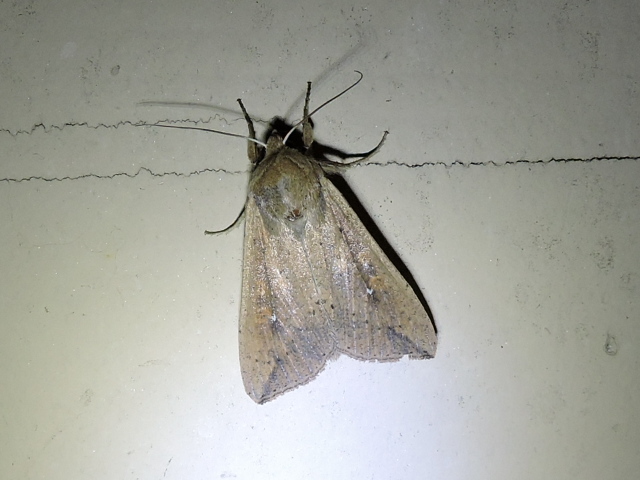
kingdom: Animalia
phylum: Arthropoda
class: Insecta
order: Lepidoptera
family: Noctuidae
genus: Mythimna
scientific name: Mythimna unipuncta
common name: White-speck
